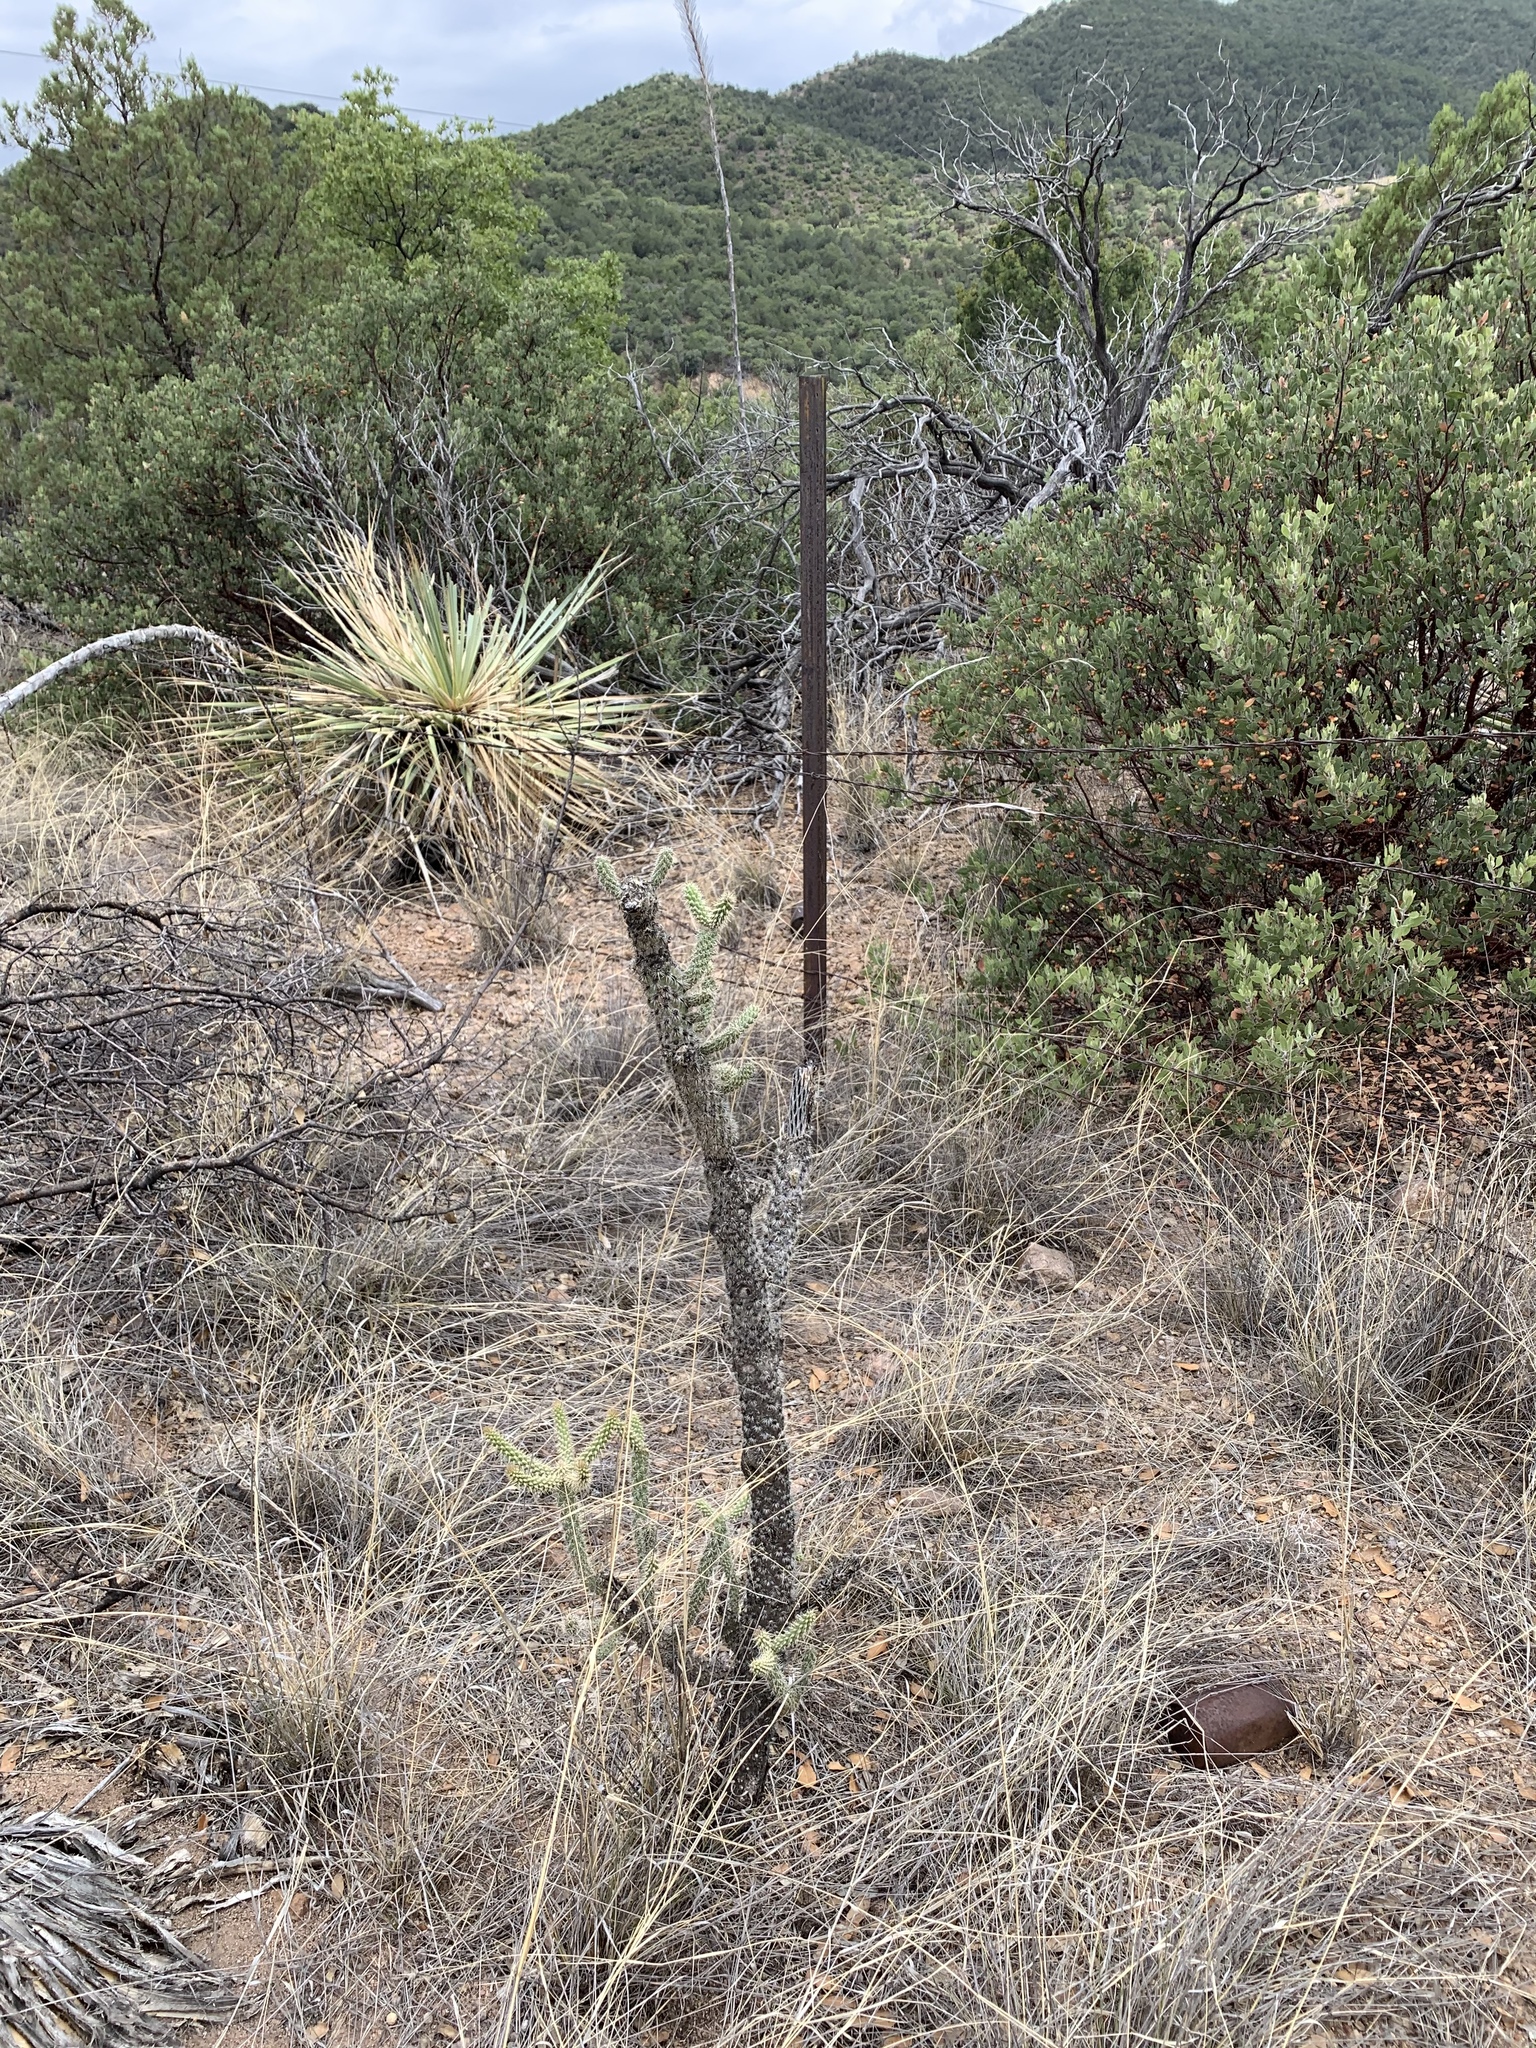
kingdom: Plantae
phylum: Tracheophyta
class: Magnoliopsida
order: Caryophyllales
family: Cactaceae
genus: Cylindropuntia
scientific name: Cylindropuntia imbricata
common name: Candelabrum cactus
